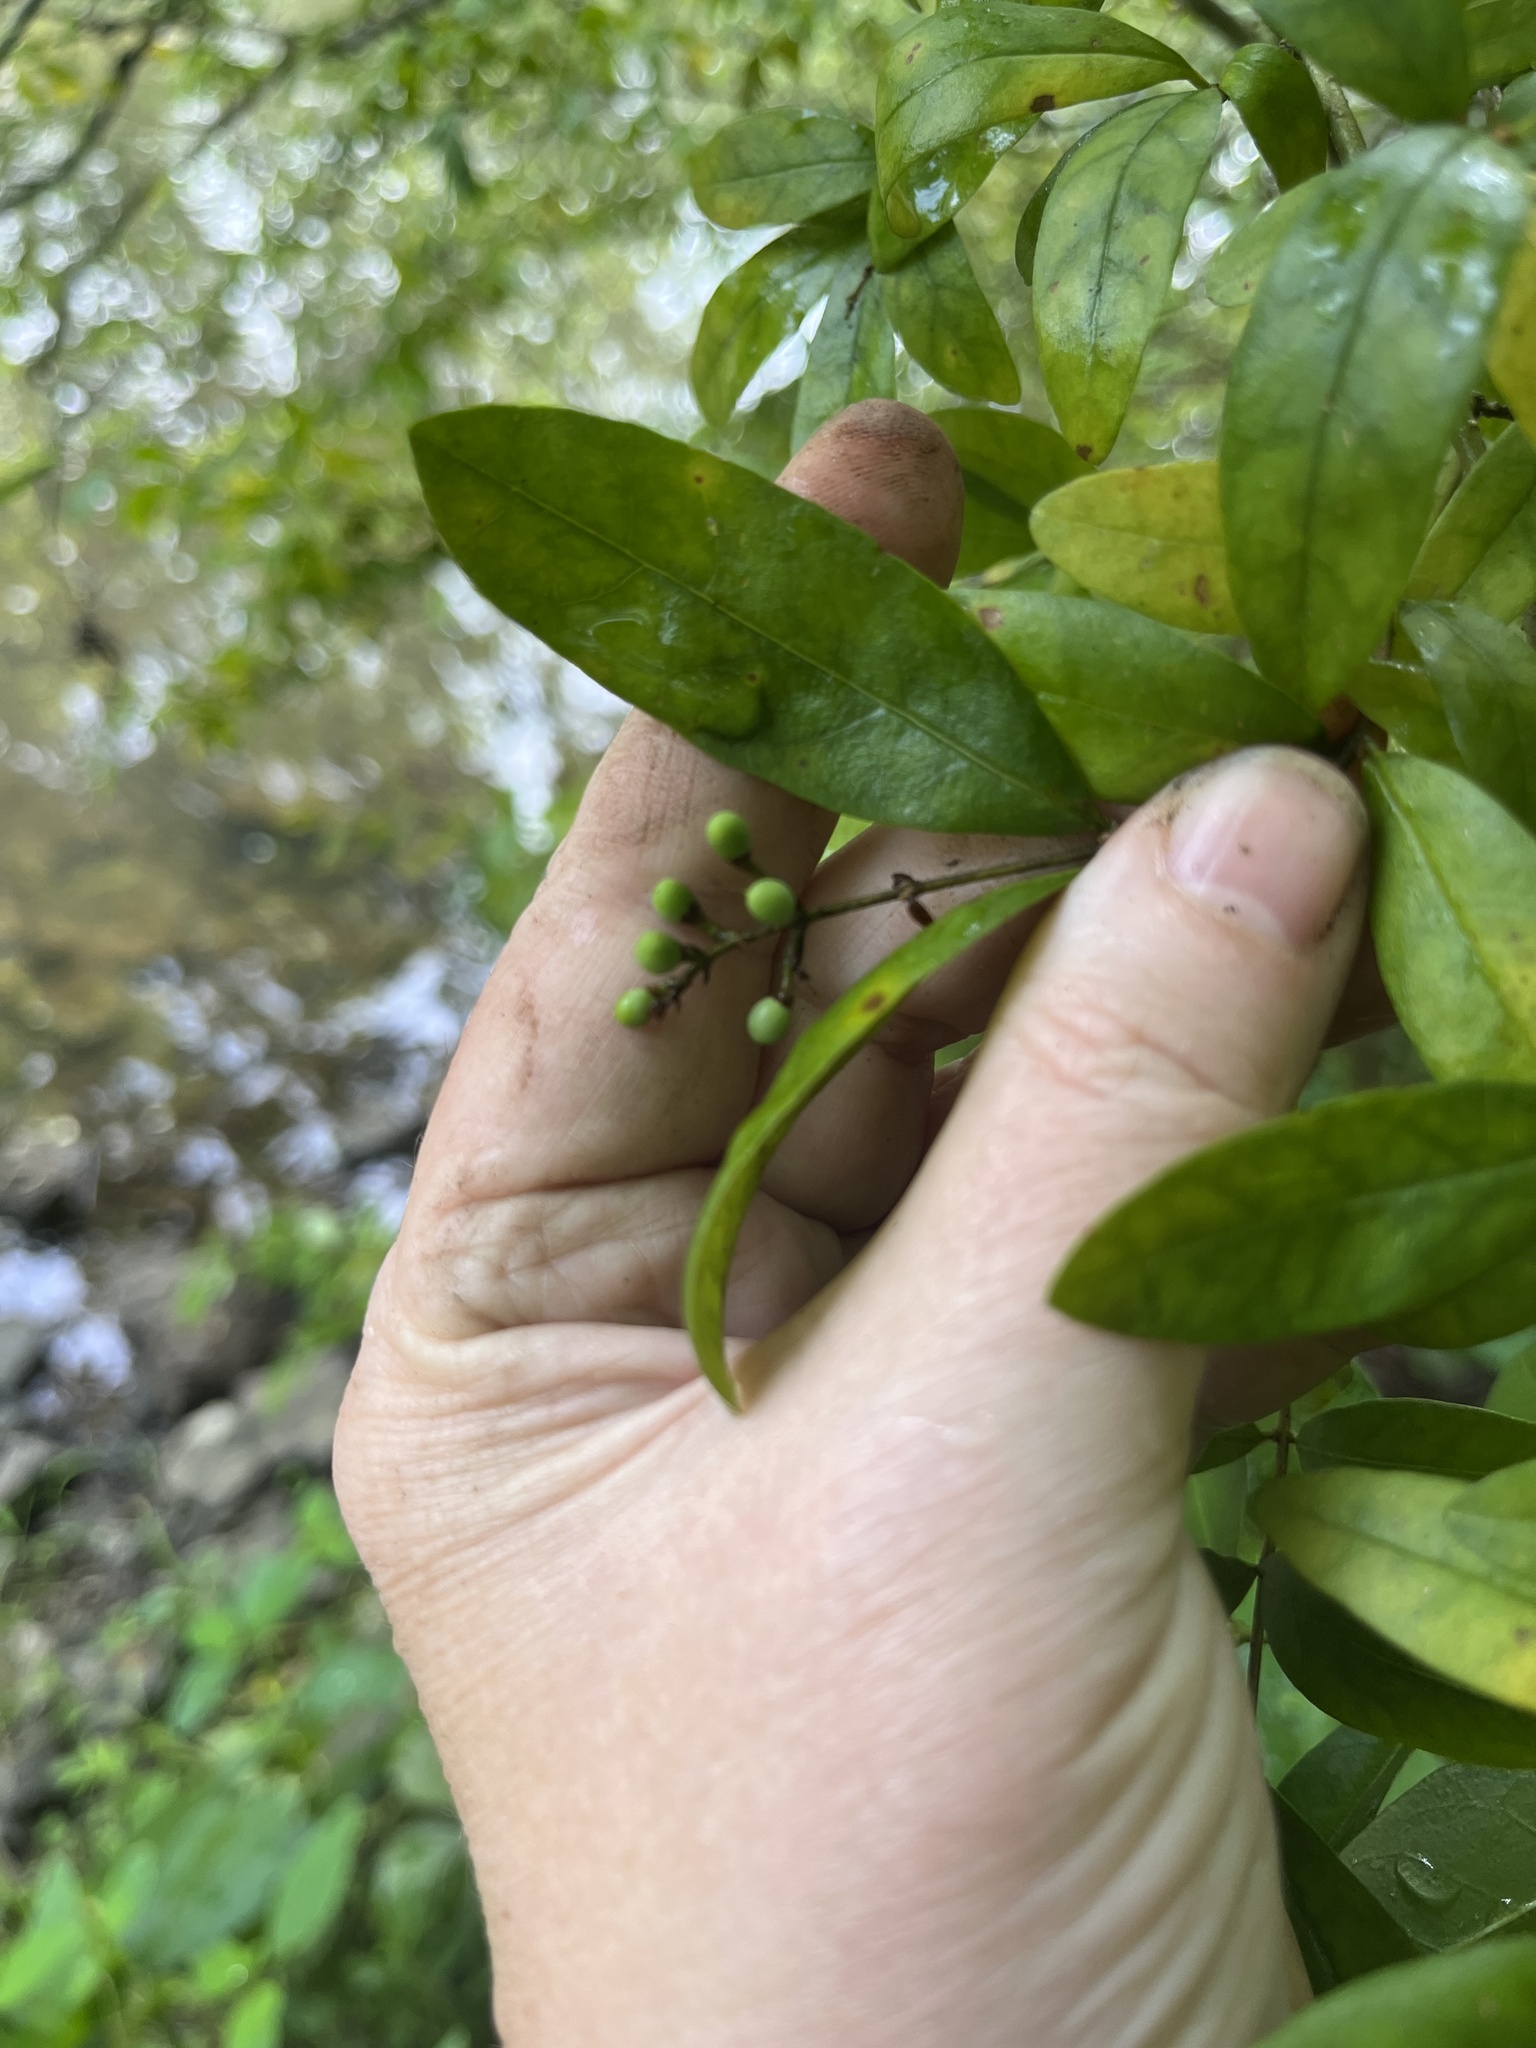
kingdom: Plantae
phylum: Tracheophyta
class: Magnoliopsida
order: Lamiales
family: Oleaceae
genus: Ligustrum
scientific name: Ligustrum obtusifolium
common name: Border privet
